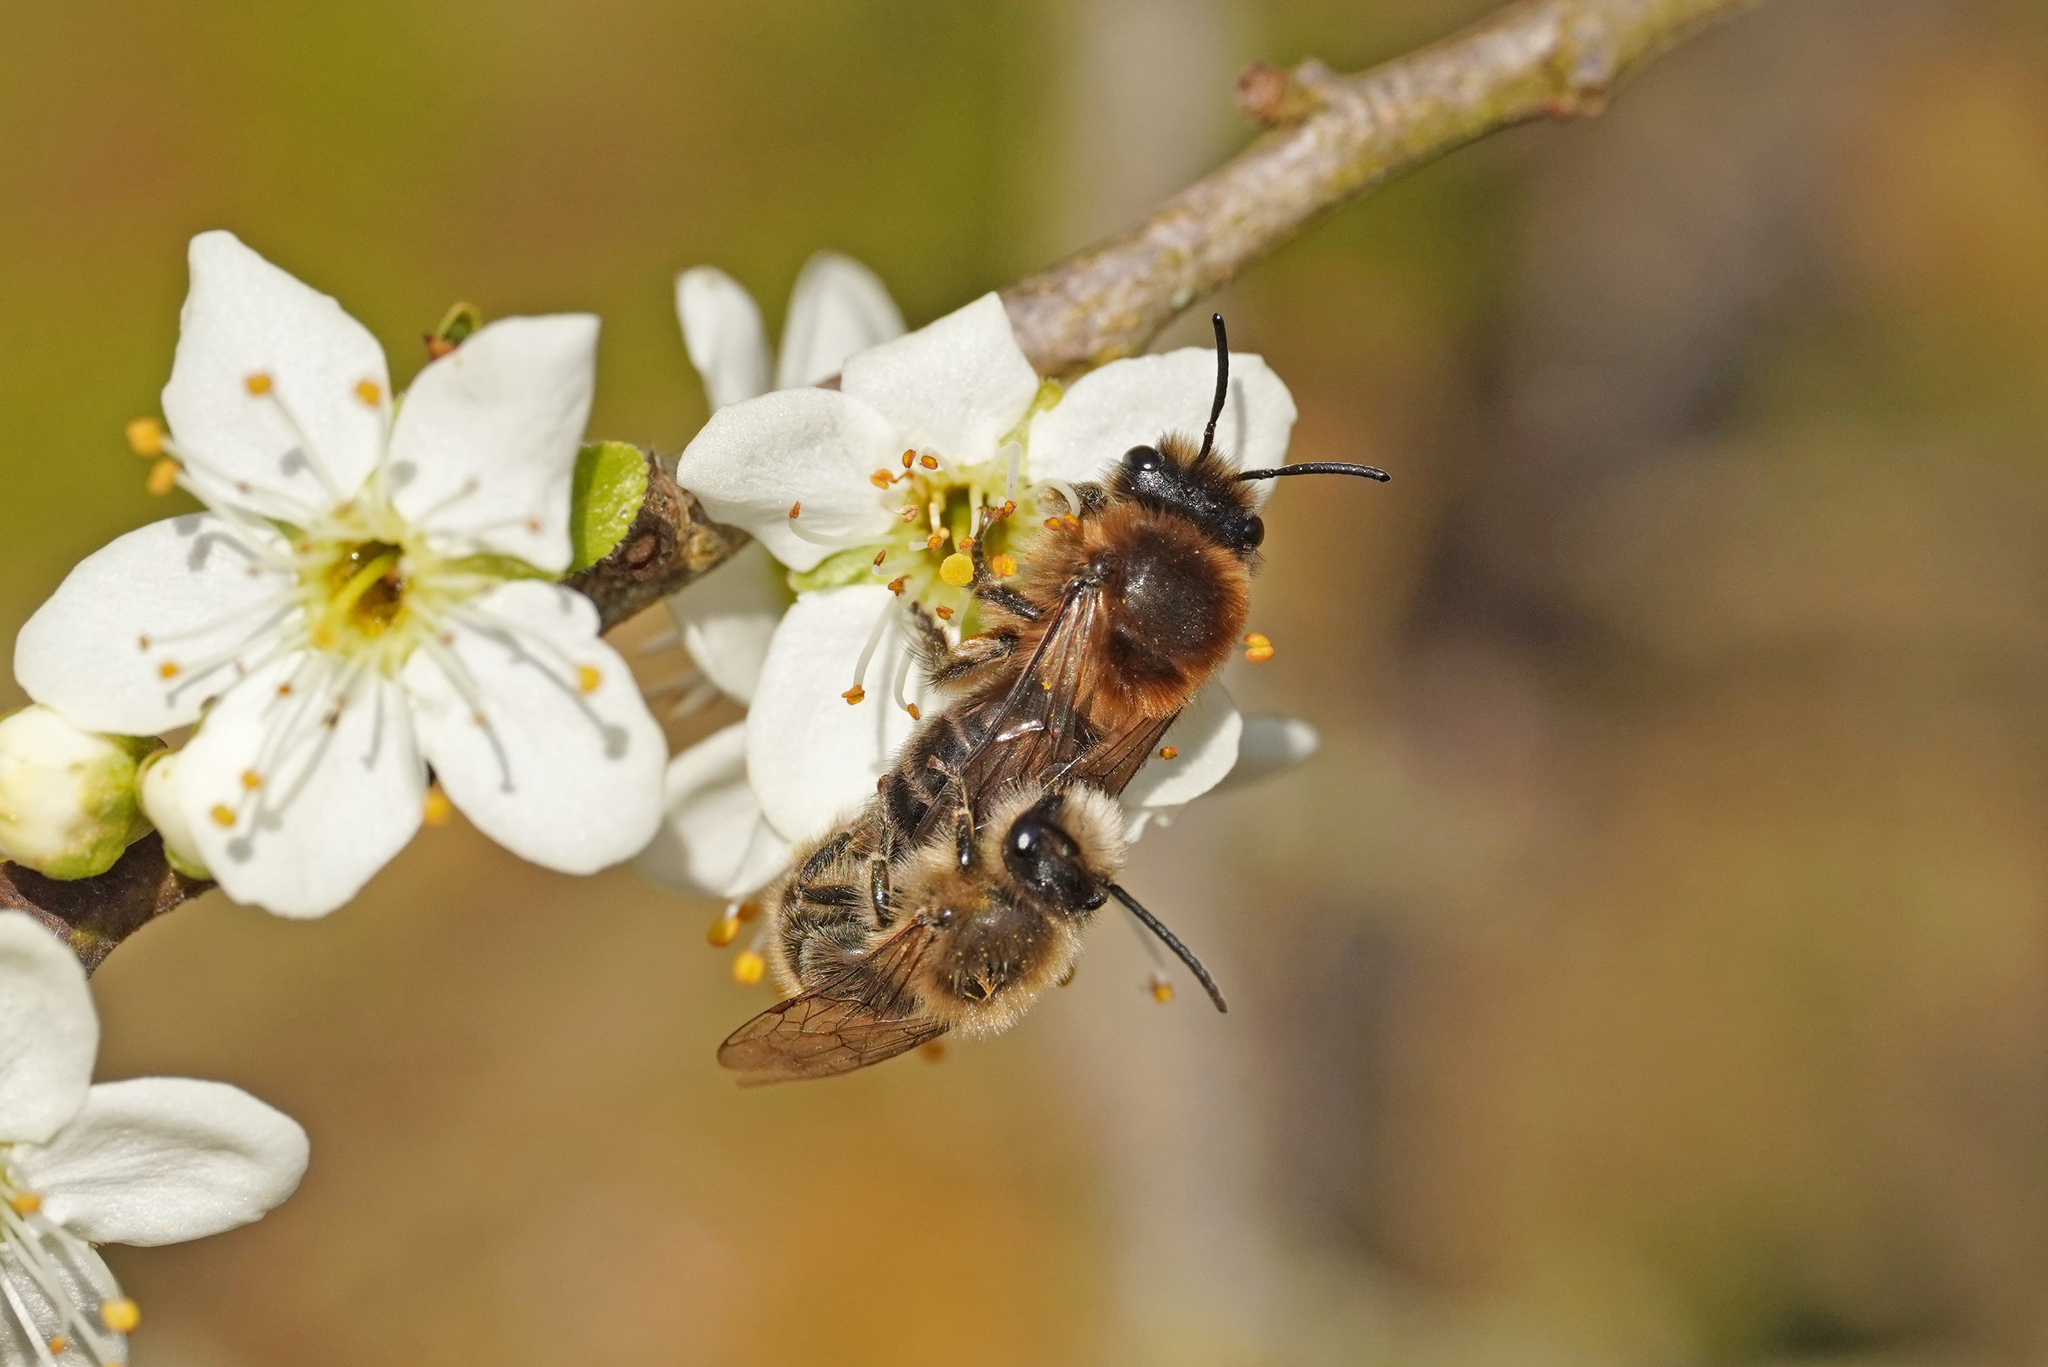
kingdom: Animalia
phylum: Arthropoda
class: Insecta
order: Hymenoptera
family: Colletidae
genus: Colletes
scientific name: Colletes cunicularius
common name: Early colletes
